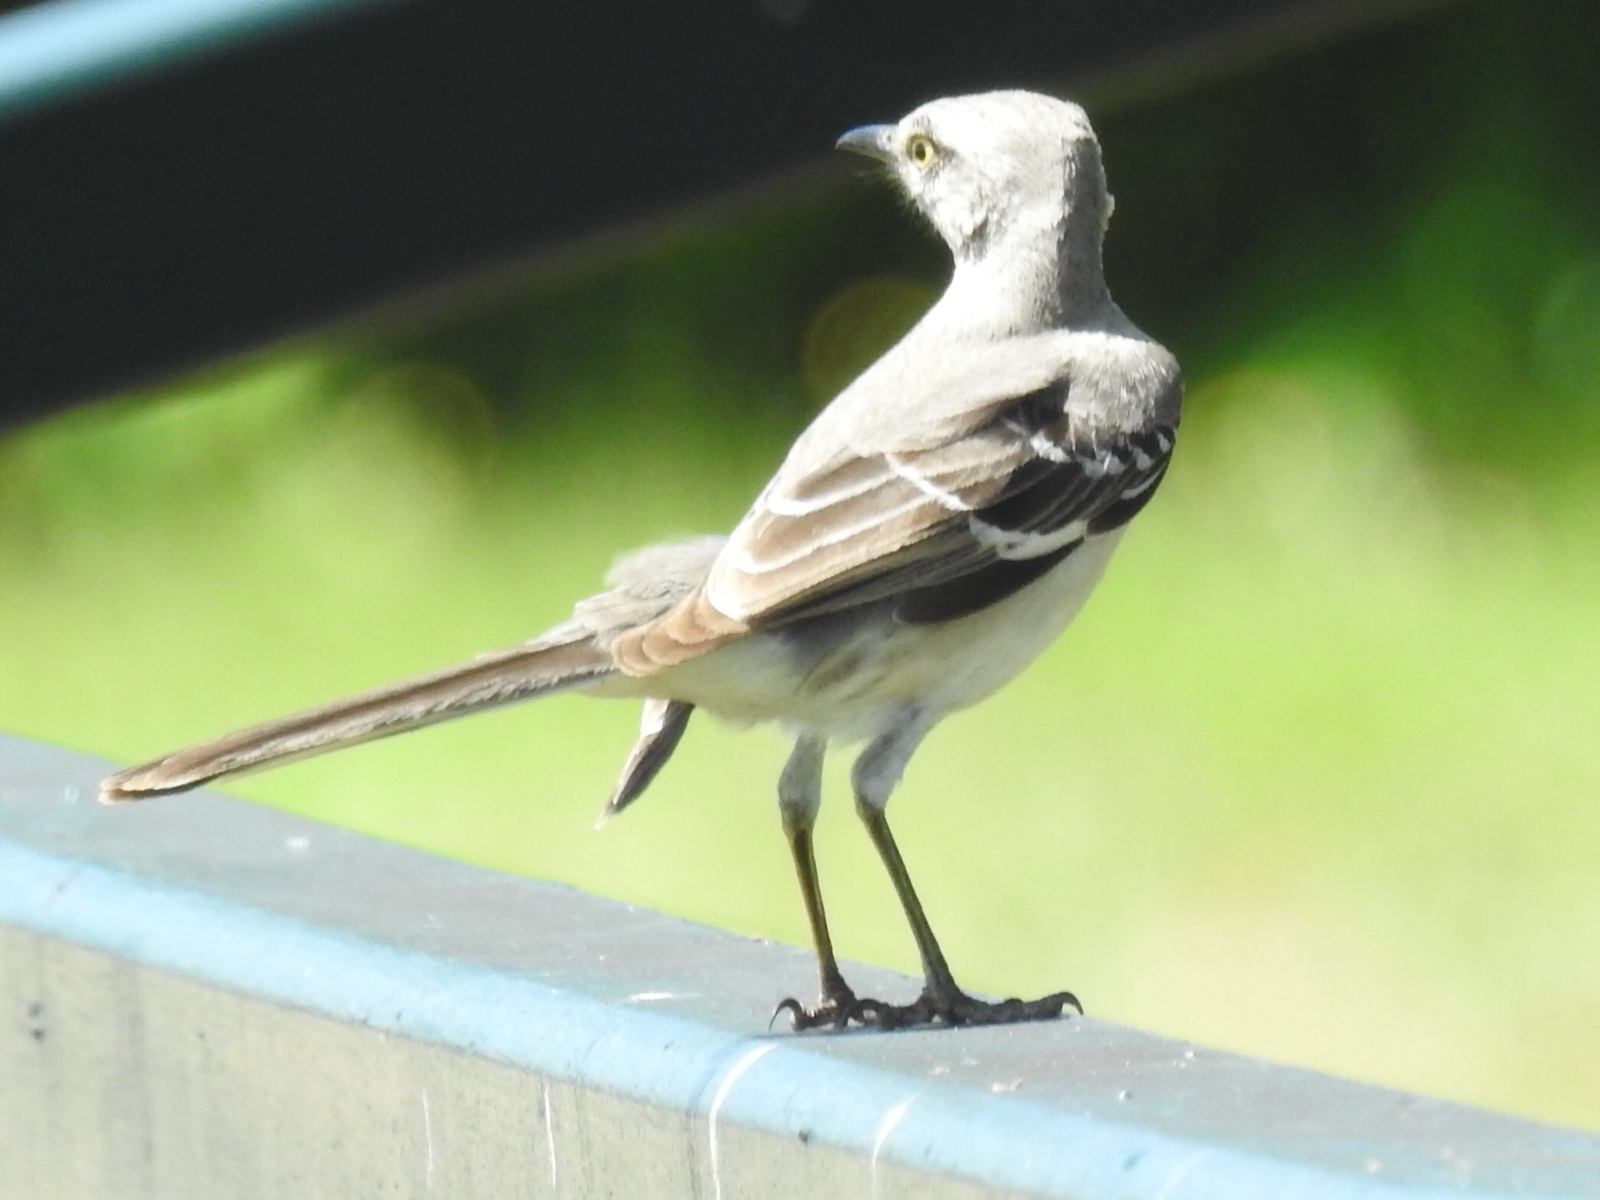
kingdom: Animalia
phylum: Chordata
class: Aves
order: Passeriformes
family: Mimidae
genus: Mimus
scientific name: Mimus polyglottos
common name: Northern mockingbird
